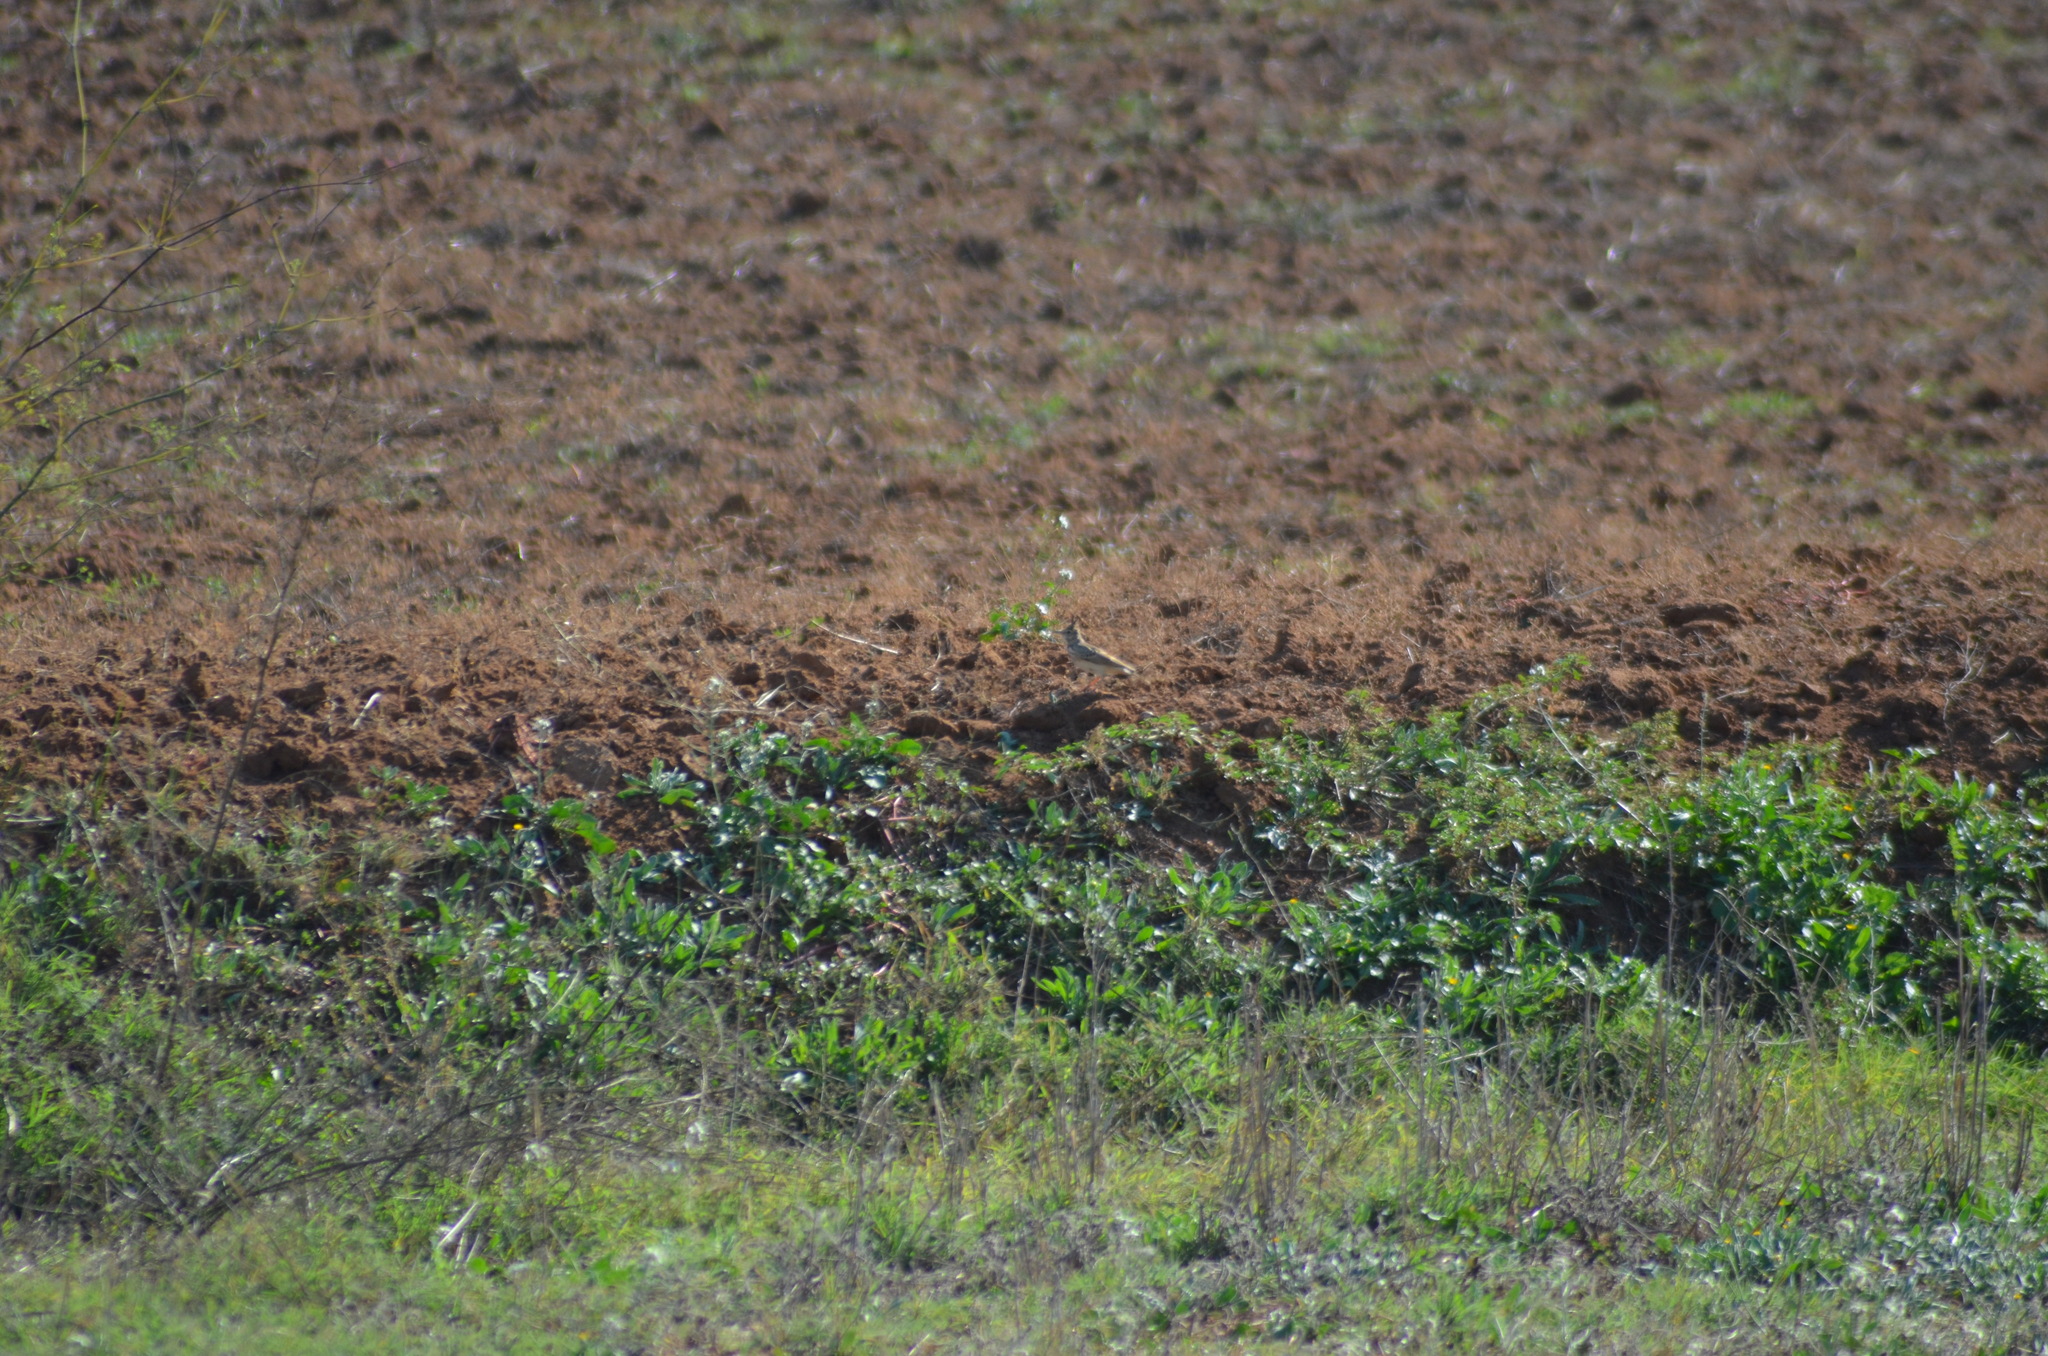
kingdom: Animalia
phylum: Chordata
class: Aves
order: Passeriformes
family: Alaudidae
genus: Galerida
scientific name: Galerida cristata
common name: Crested lark
